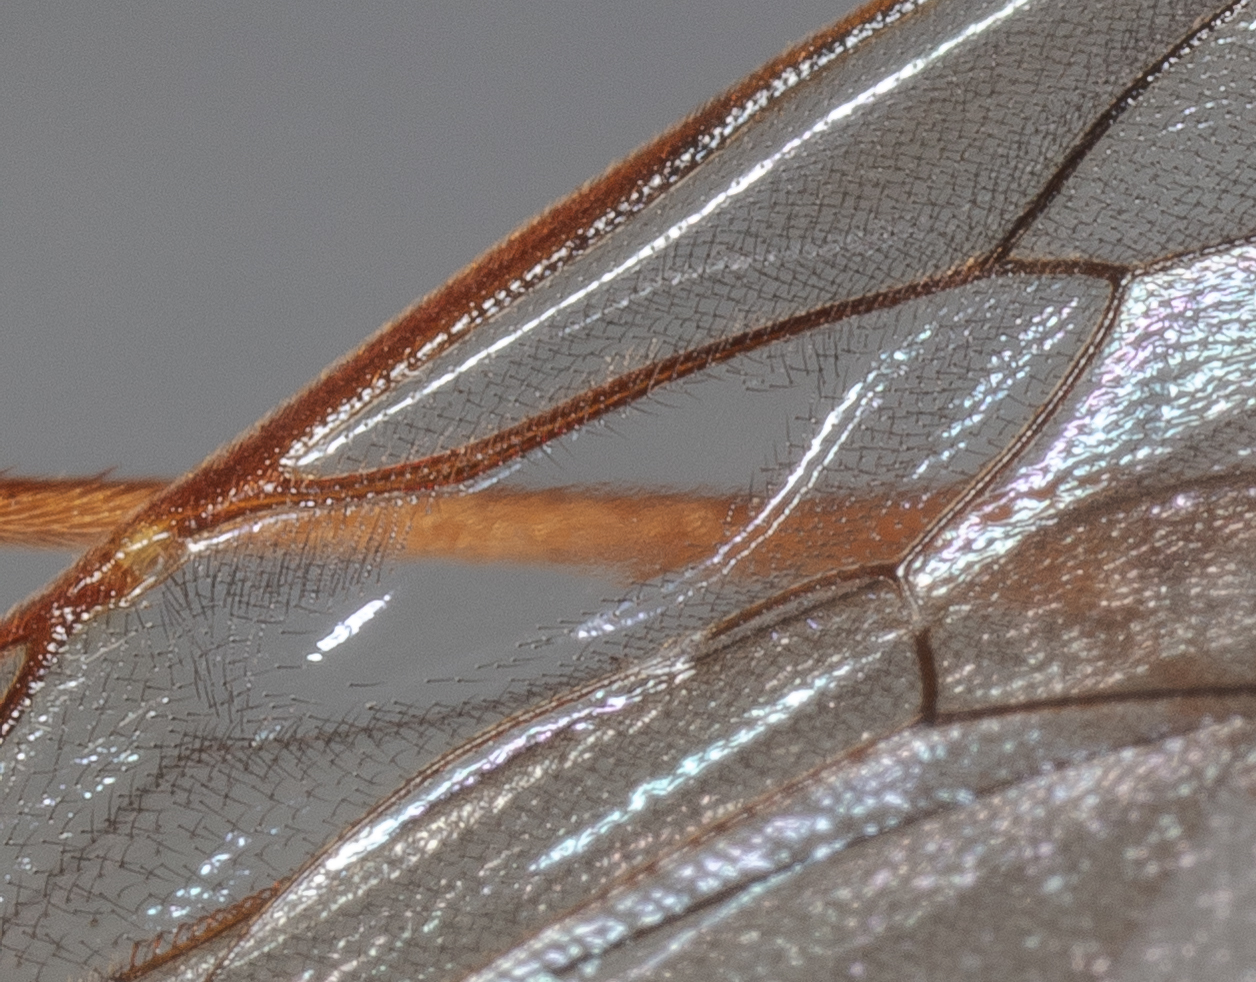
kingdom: Animalia
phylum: Arthropoda
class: Insecta
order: Hymenoptera
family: Ichneumonidae
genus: Enicospilus
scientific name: Enicospilus glabratus
